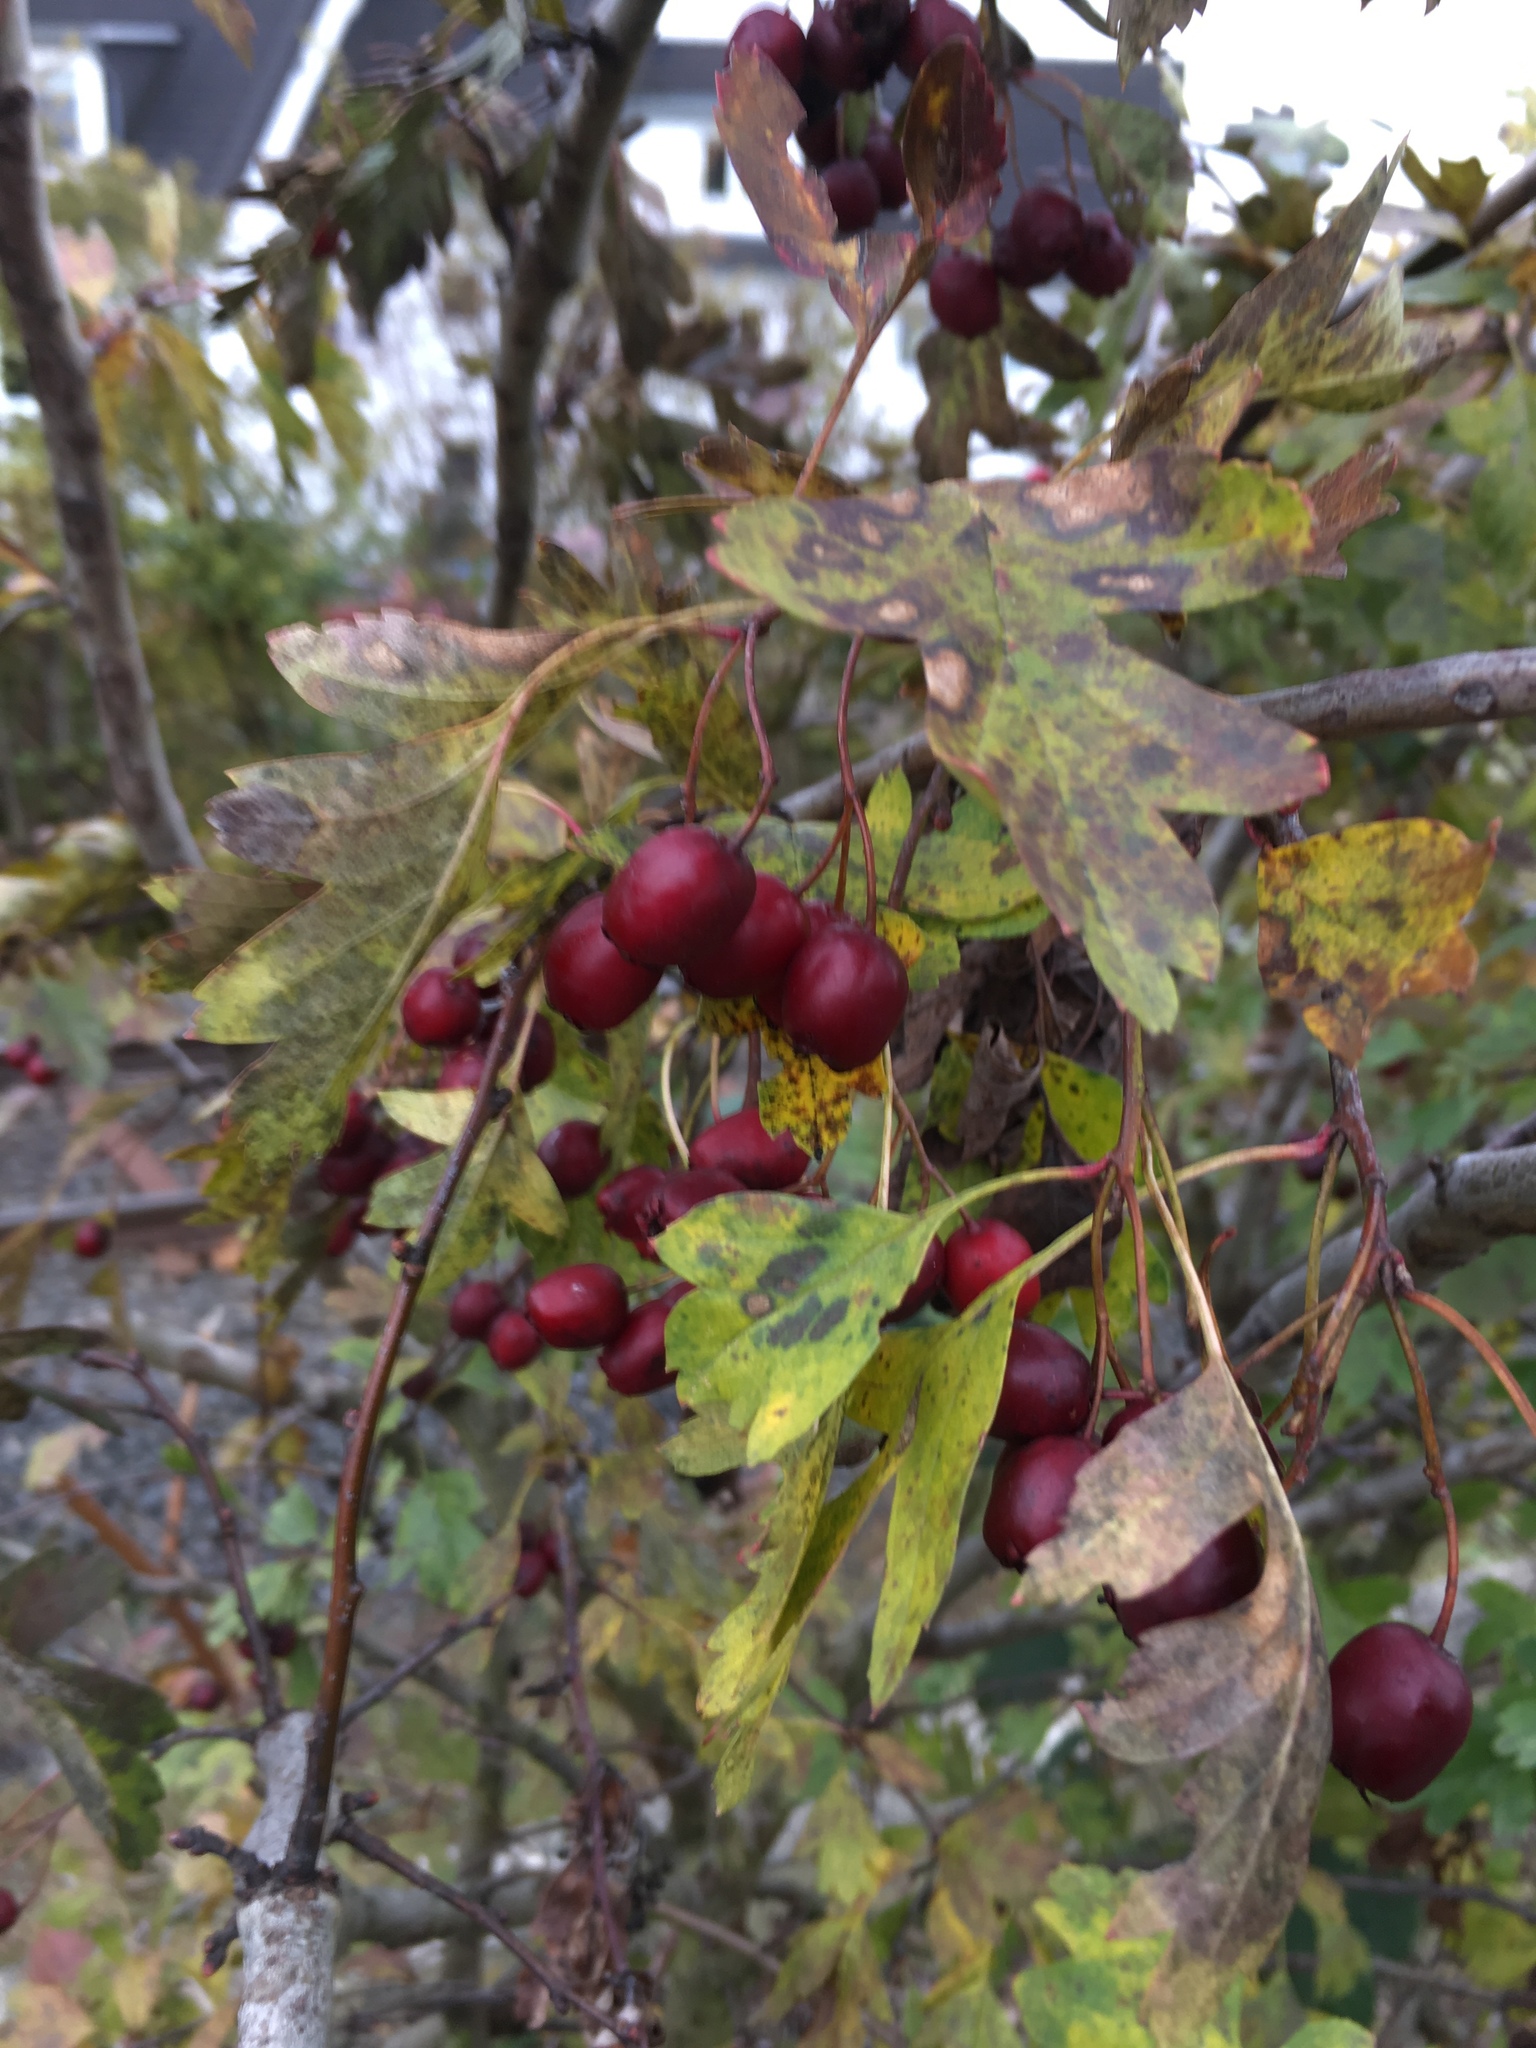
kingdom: Plantae
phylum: Tracheophyta
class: Magnoliopsida
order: Rosales
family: Rosaceae
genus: Crataegus
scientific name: Crataegus monogyna
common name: Hawthorn
